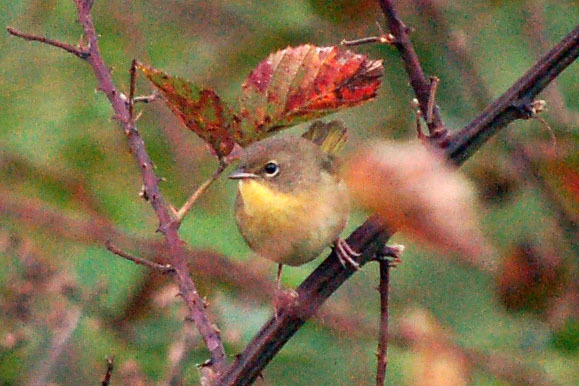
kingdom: Animalia
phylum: Chordata
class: Aves
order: Passeriformes
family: Parulidae
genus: Geothlypis
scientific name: Geothlypis trichas
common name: Common yellowthroat
